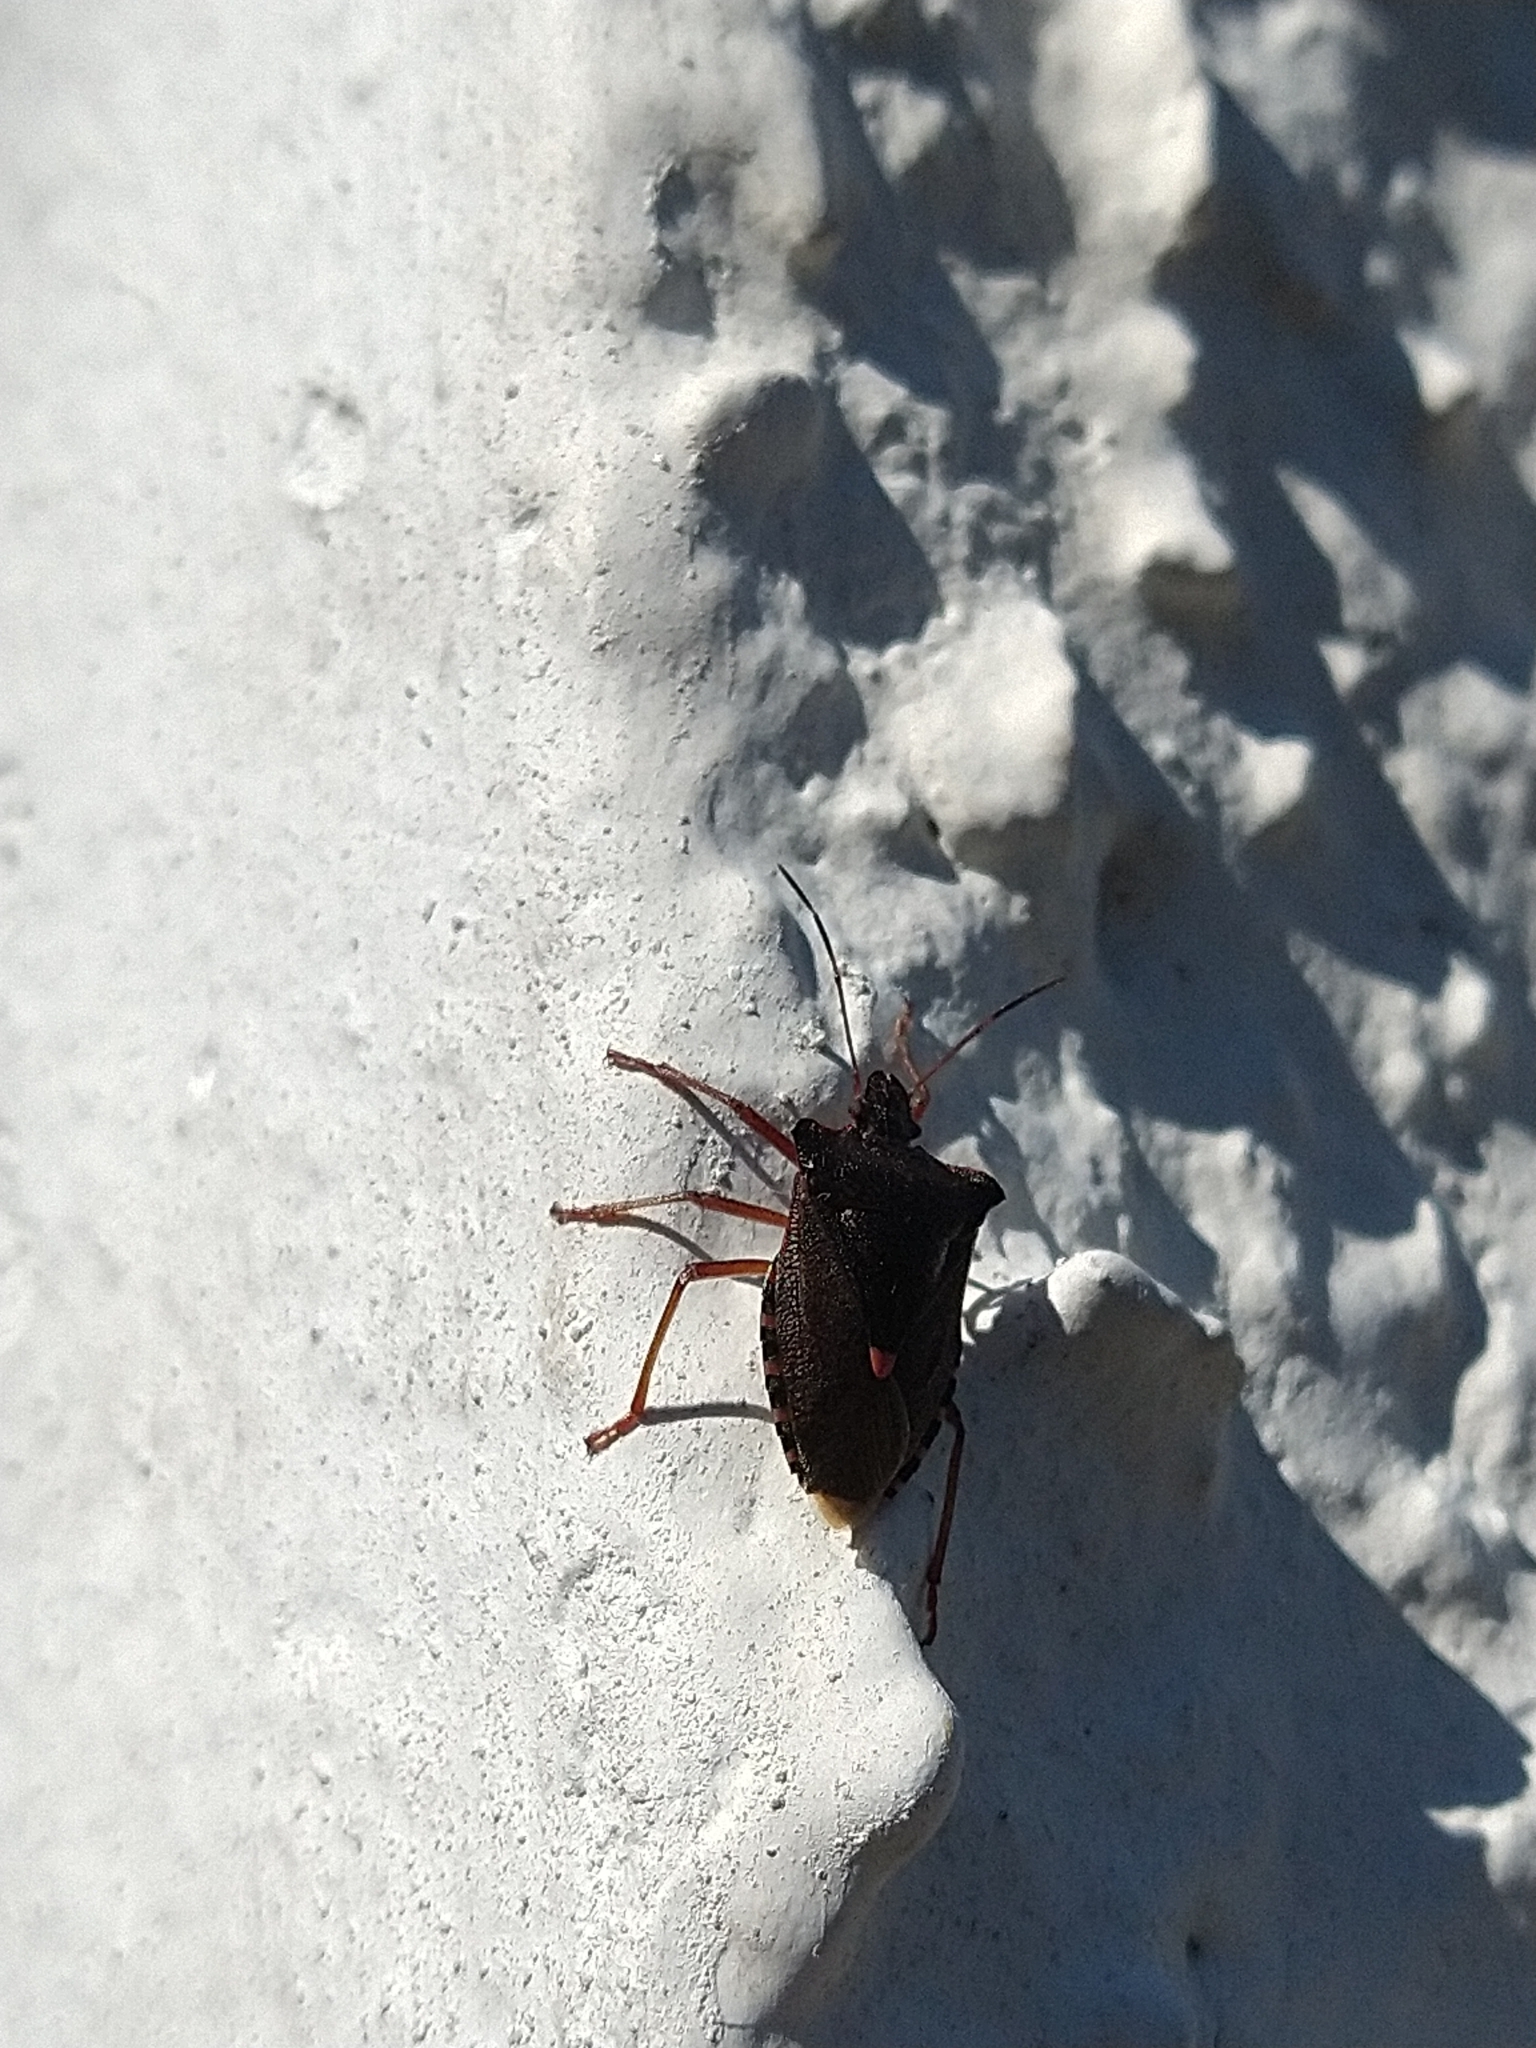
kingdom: Animalia
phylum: Arthropoda
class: Insecta
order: Hemiptera
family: Pentatomidae
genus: Pentatoma
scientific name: Pentatoma rufipes
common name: Forest bug
